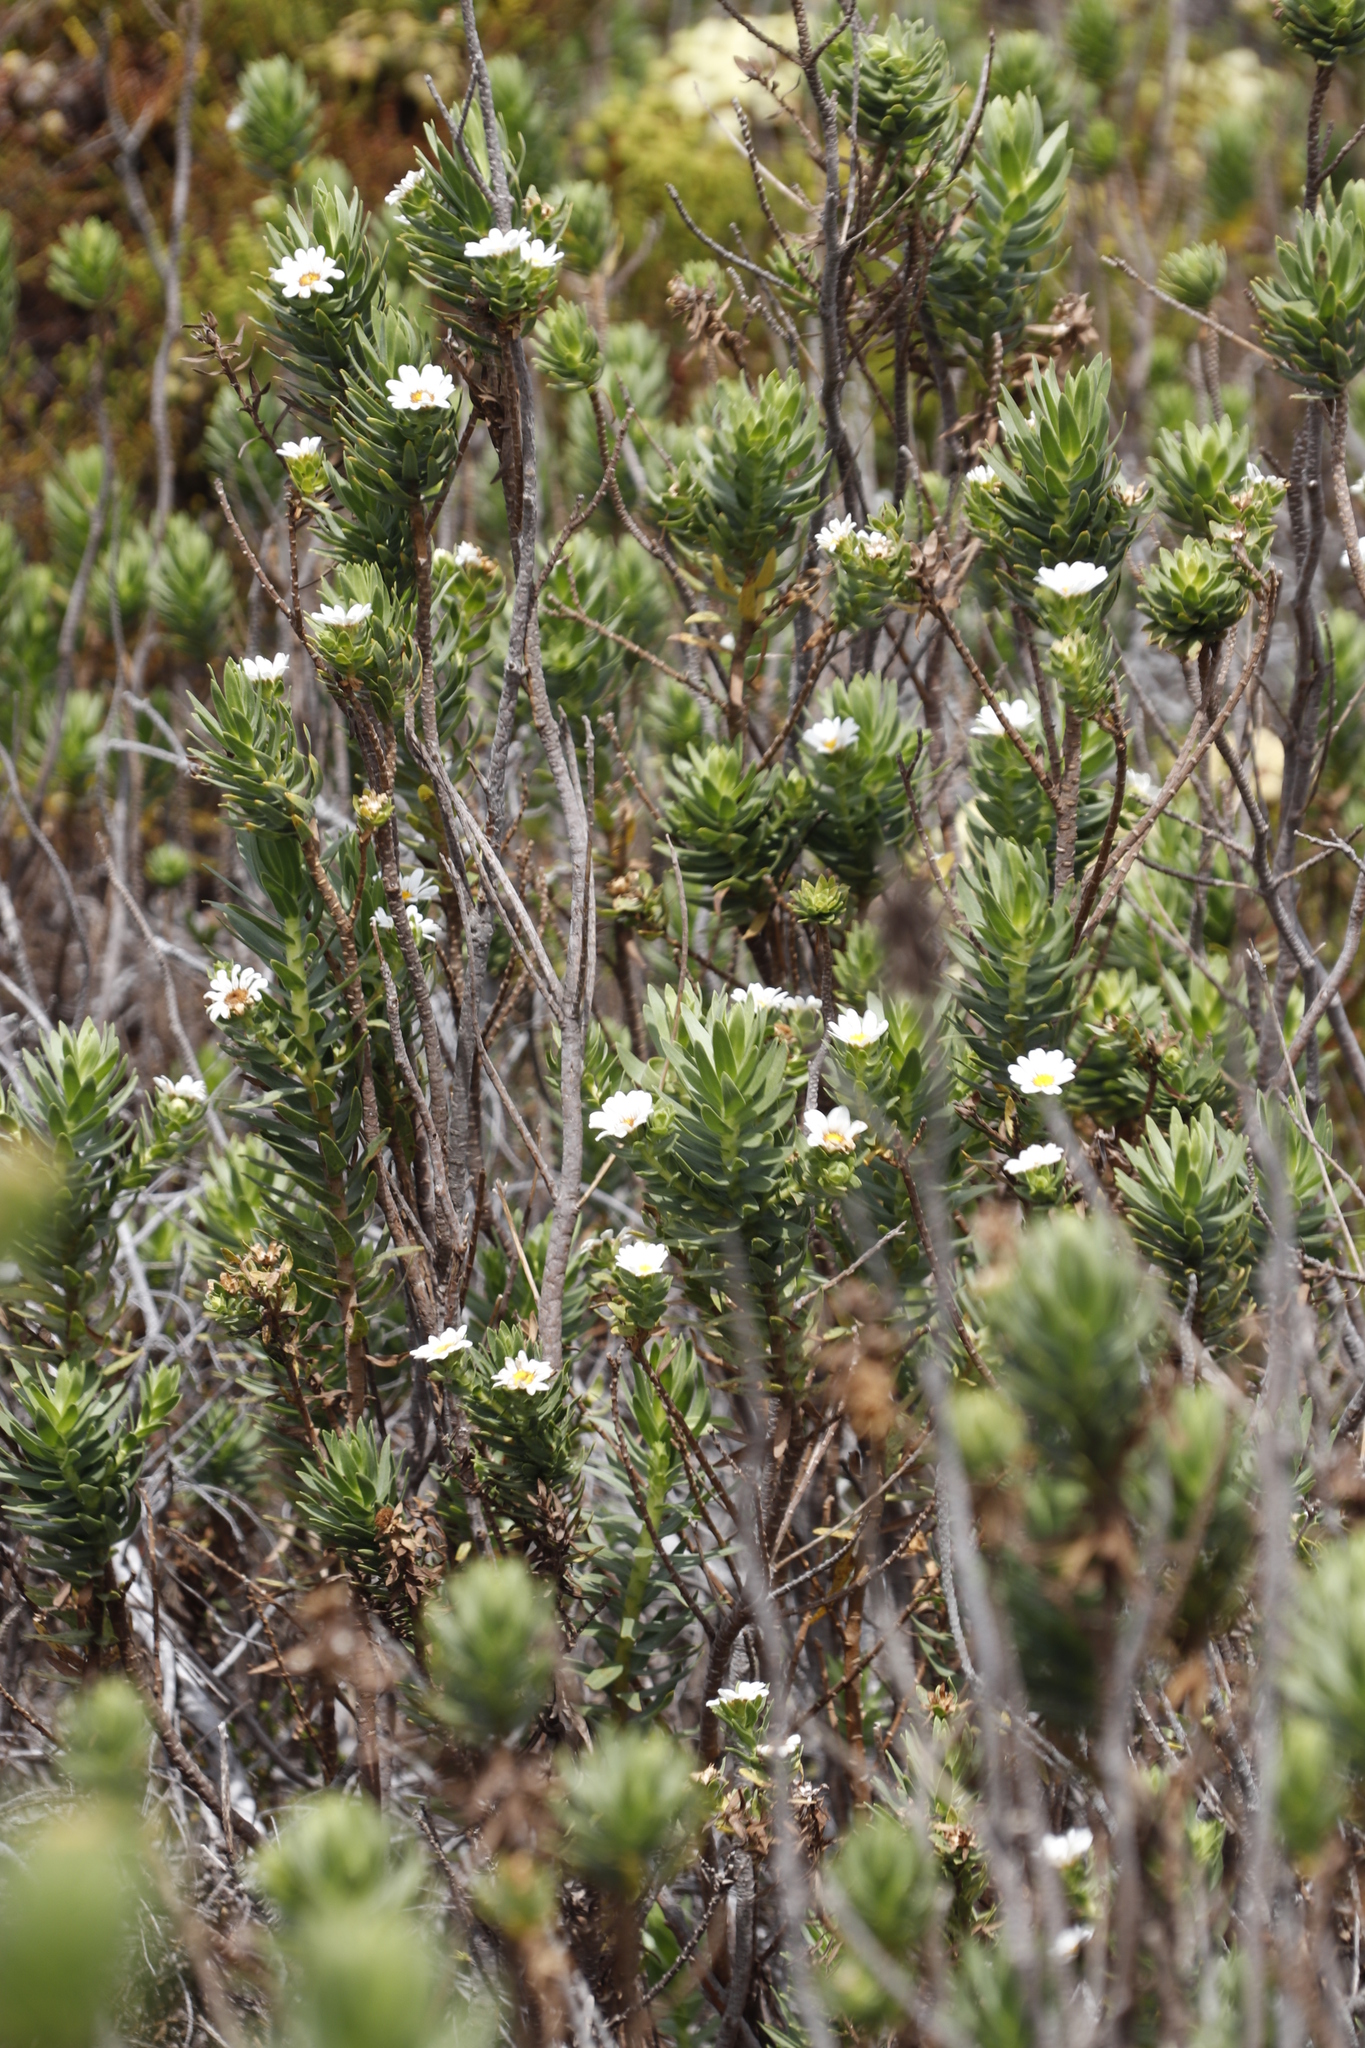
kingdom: Plantae
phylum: Tracheophyta
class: Magnoliopsida
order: Asterales
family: Asteraceae
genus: Osmitopsis
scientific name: Osmitopsis asteriscoides
